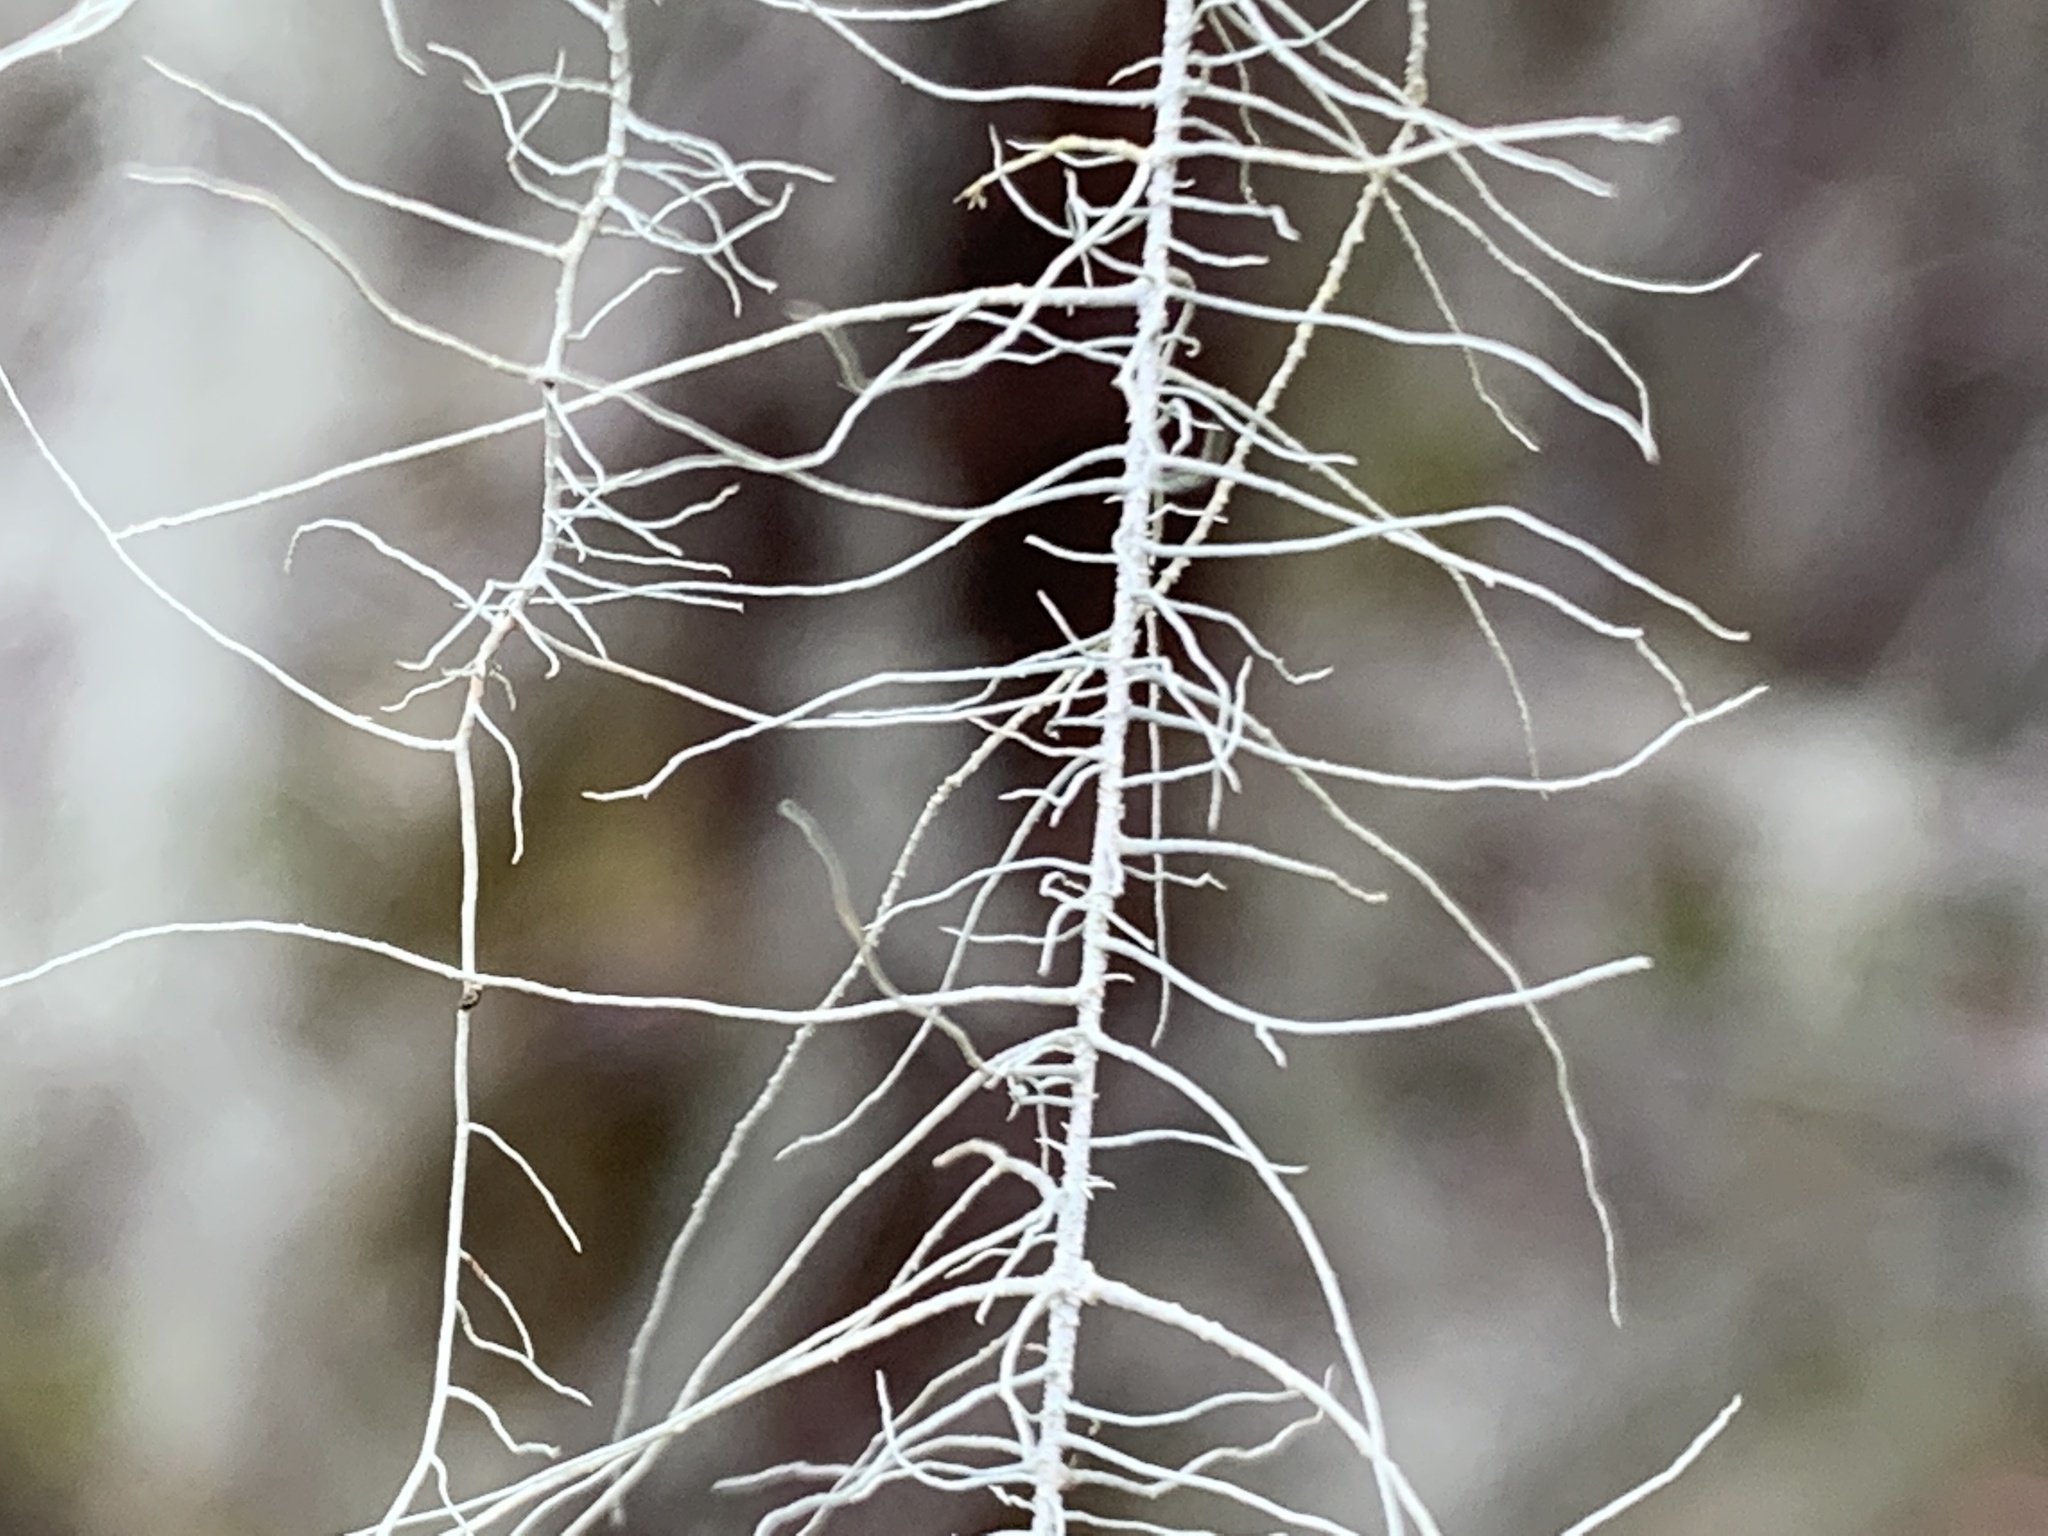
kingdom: Fungi
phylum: Ascomycota
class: Lecanoromycetes
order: Lecanorales
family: Parmeliaceae
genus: Dolichousnea
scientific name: Dolichousnea longissima
